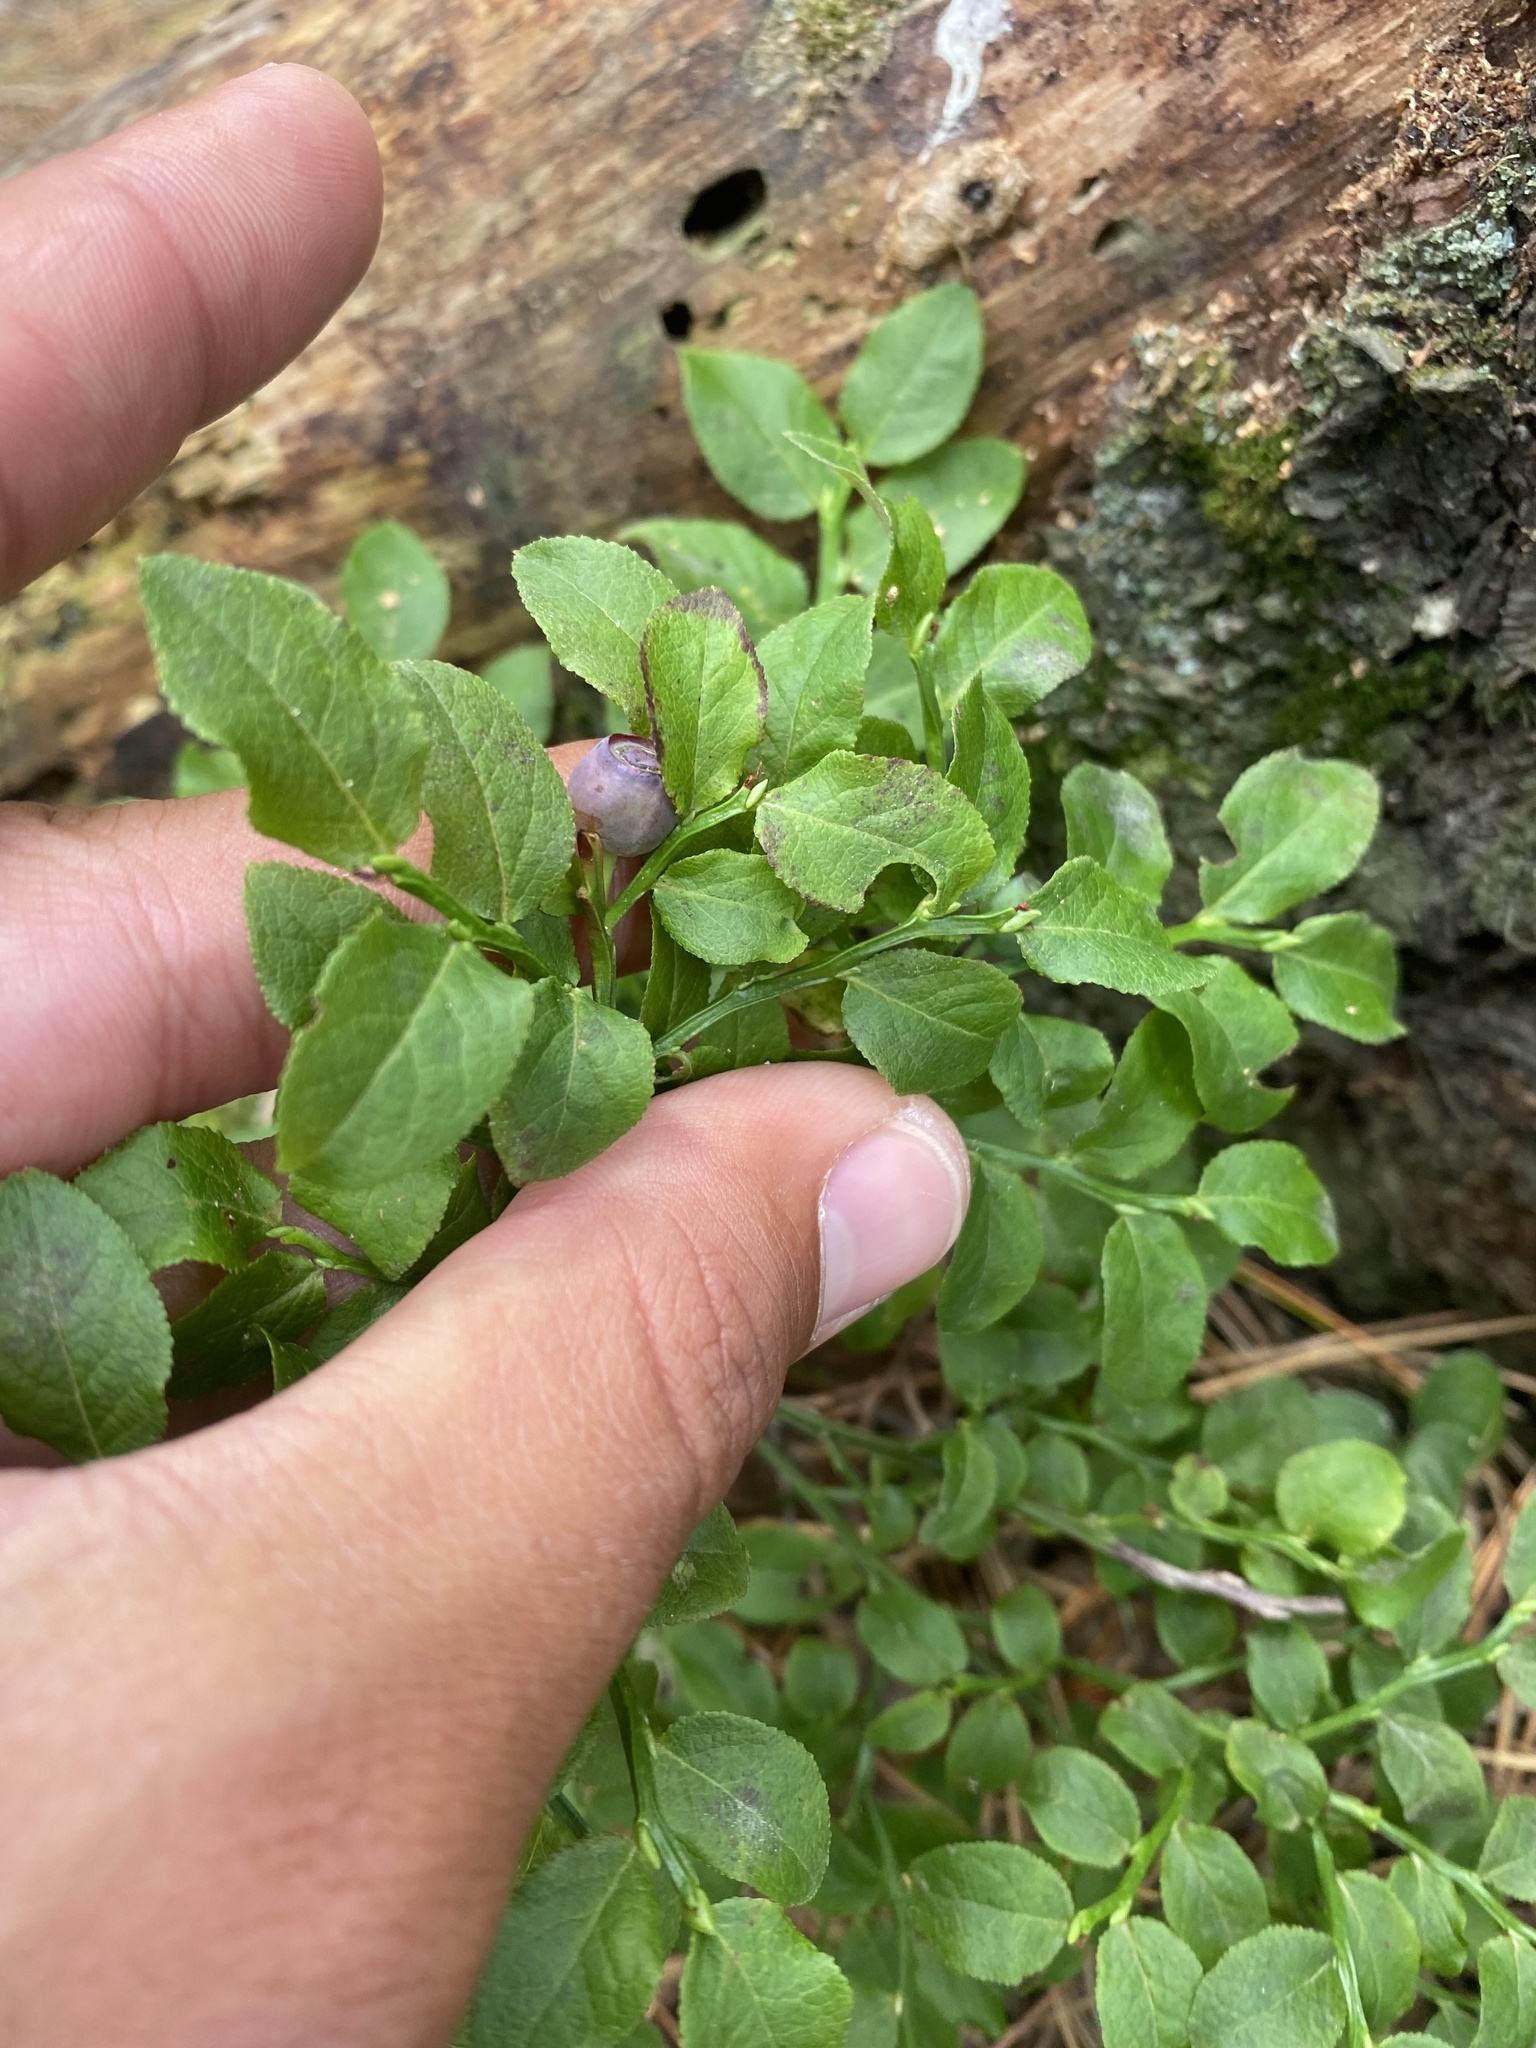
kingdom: Plantae
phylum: Tracheophyta
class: Magnoliopsida
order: Ericales
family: Ericaceae
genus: Vaccinium
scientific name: Vaccinium myrtillus
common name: Bilberry
